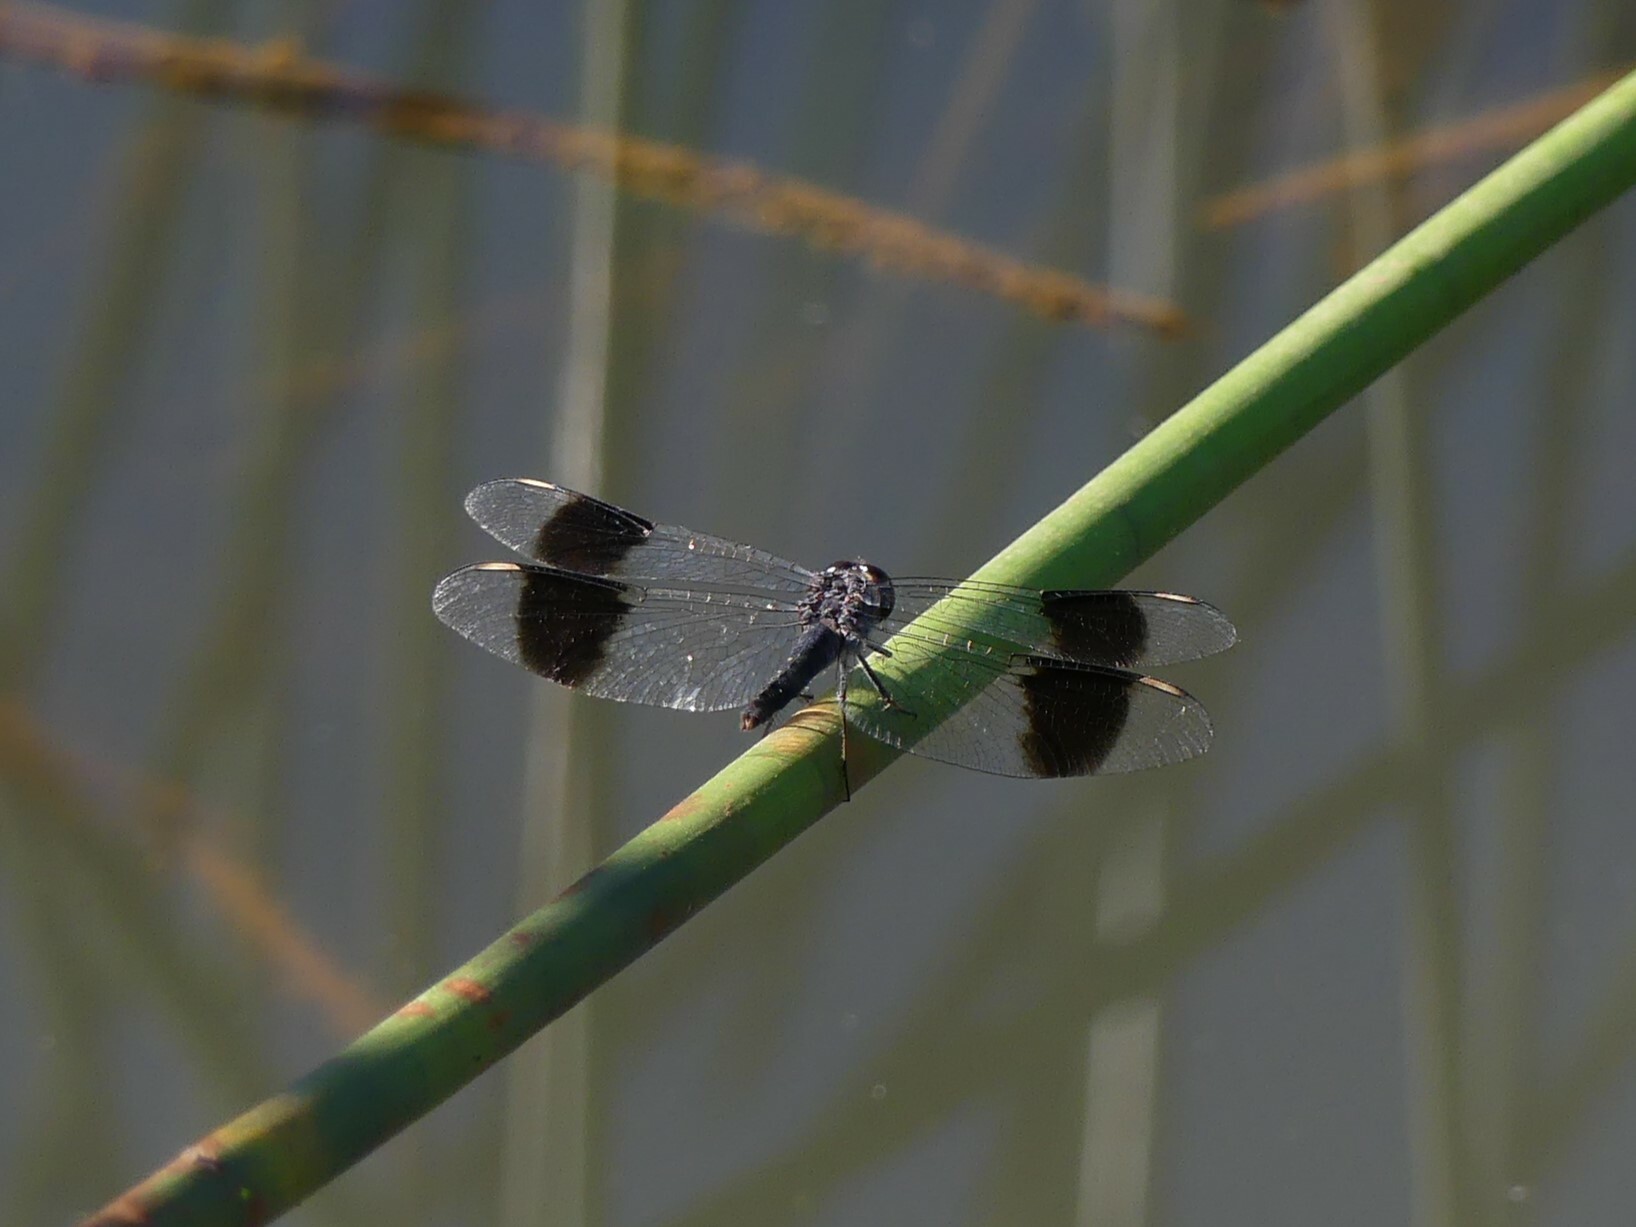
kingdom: Animalia
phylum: Arthropoda
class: Insecta
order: Odonata
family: Libellulidae
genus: Brachythemis
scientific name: Brachythemis leucosticta
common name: Banded groundling
